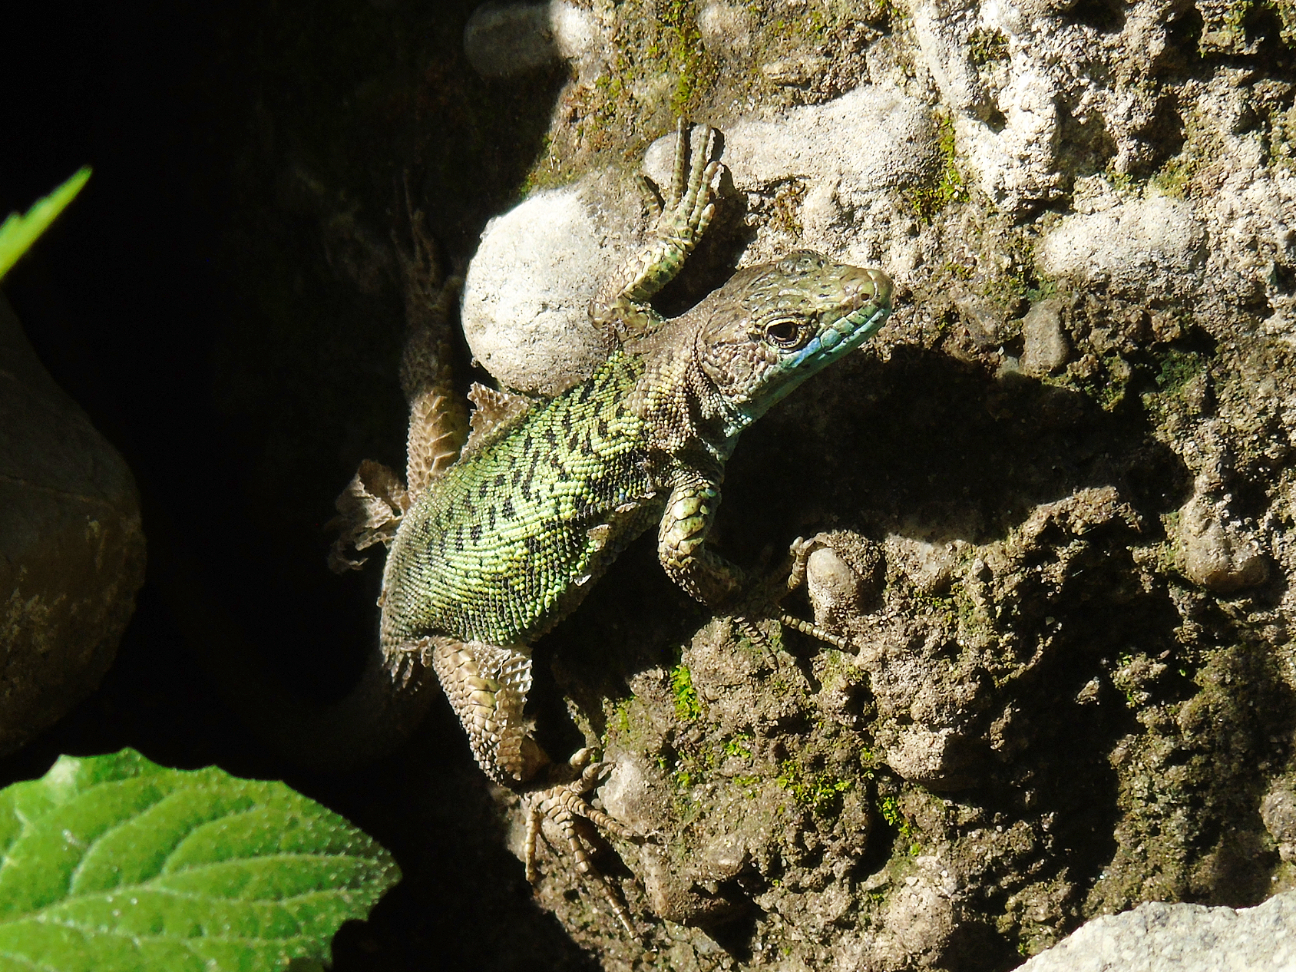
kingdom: Animalia
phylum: Chordata
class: Squamata
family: Lacertidae
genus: Darevskia
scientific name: Darevskia rudis
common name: Spiny-tailed lizard
